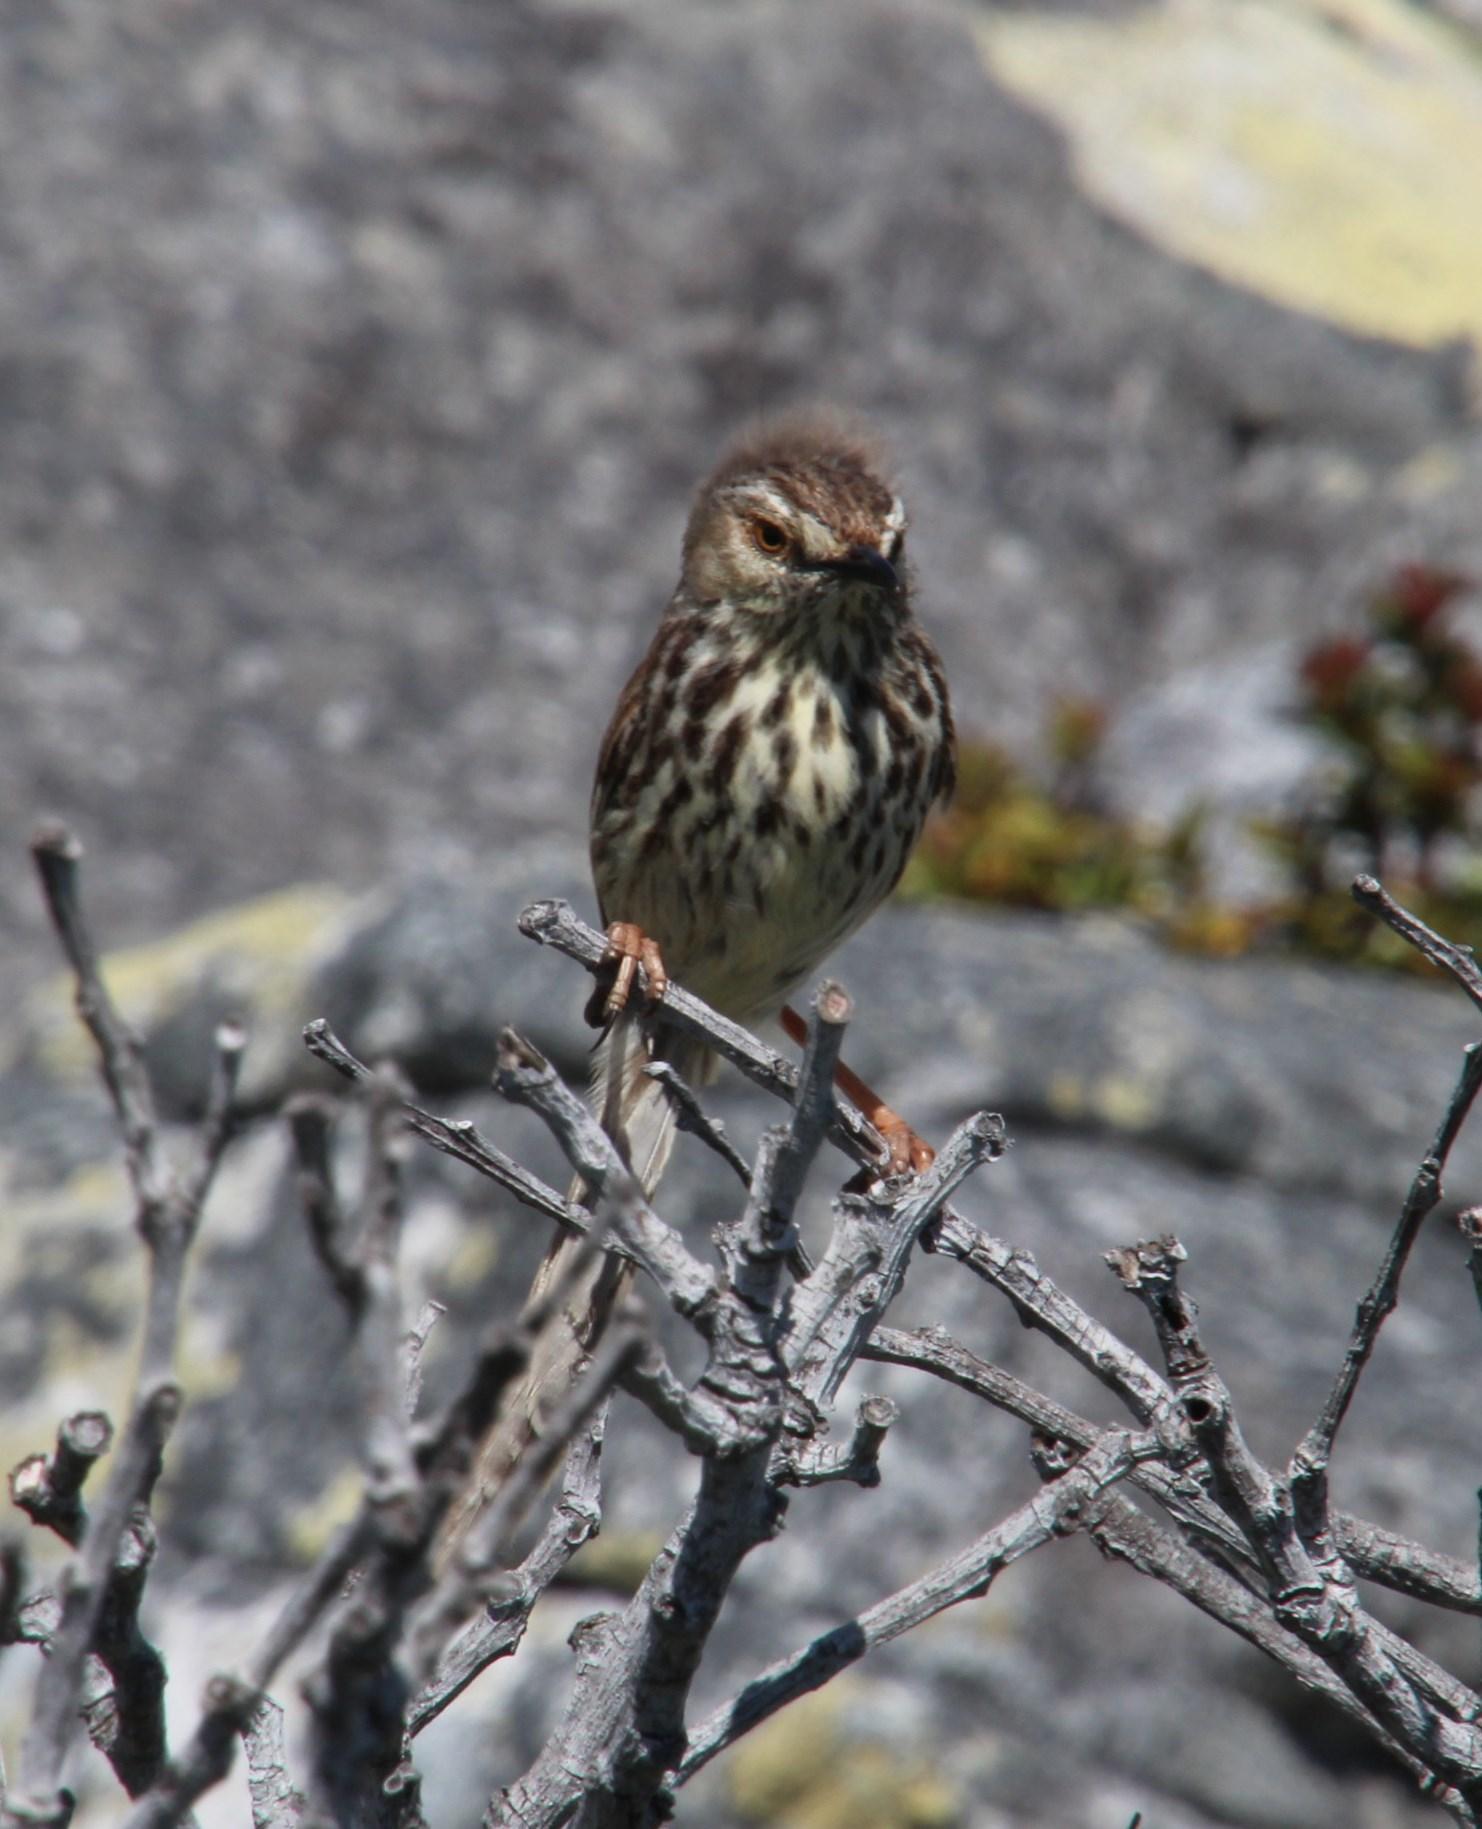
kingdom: Animalia
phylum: Chordata
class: Aves
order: Passeriformes
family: Cisticolidae
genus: Prinia
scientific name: Prinia maculosa
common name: Karoo prinia
